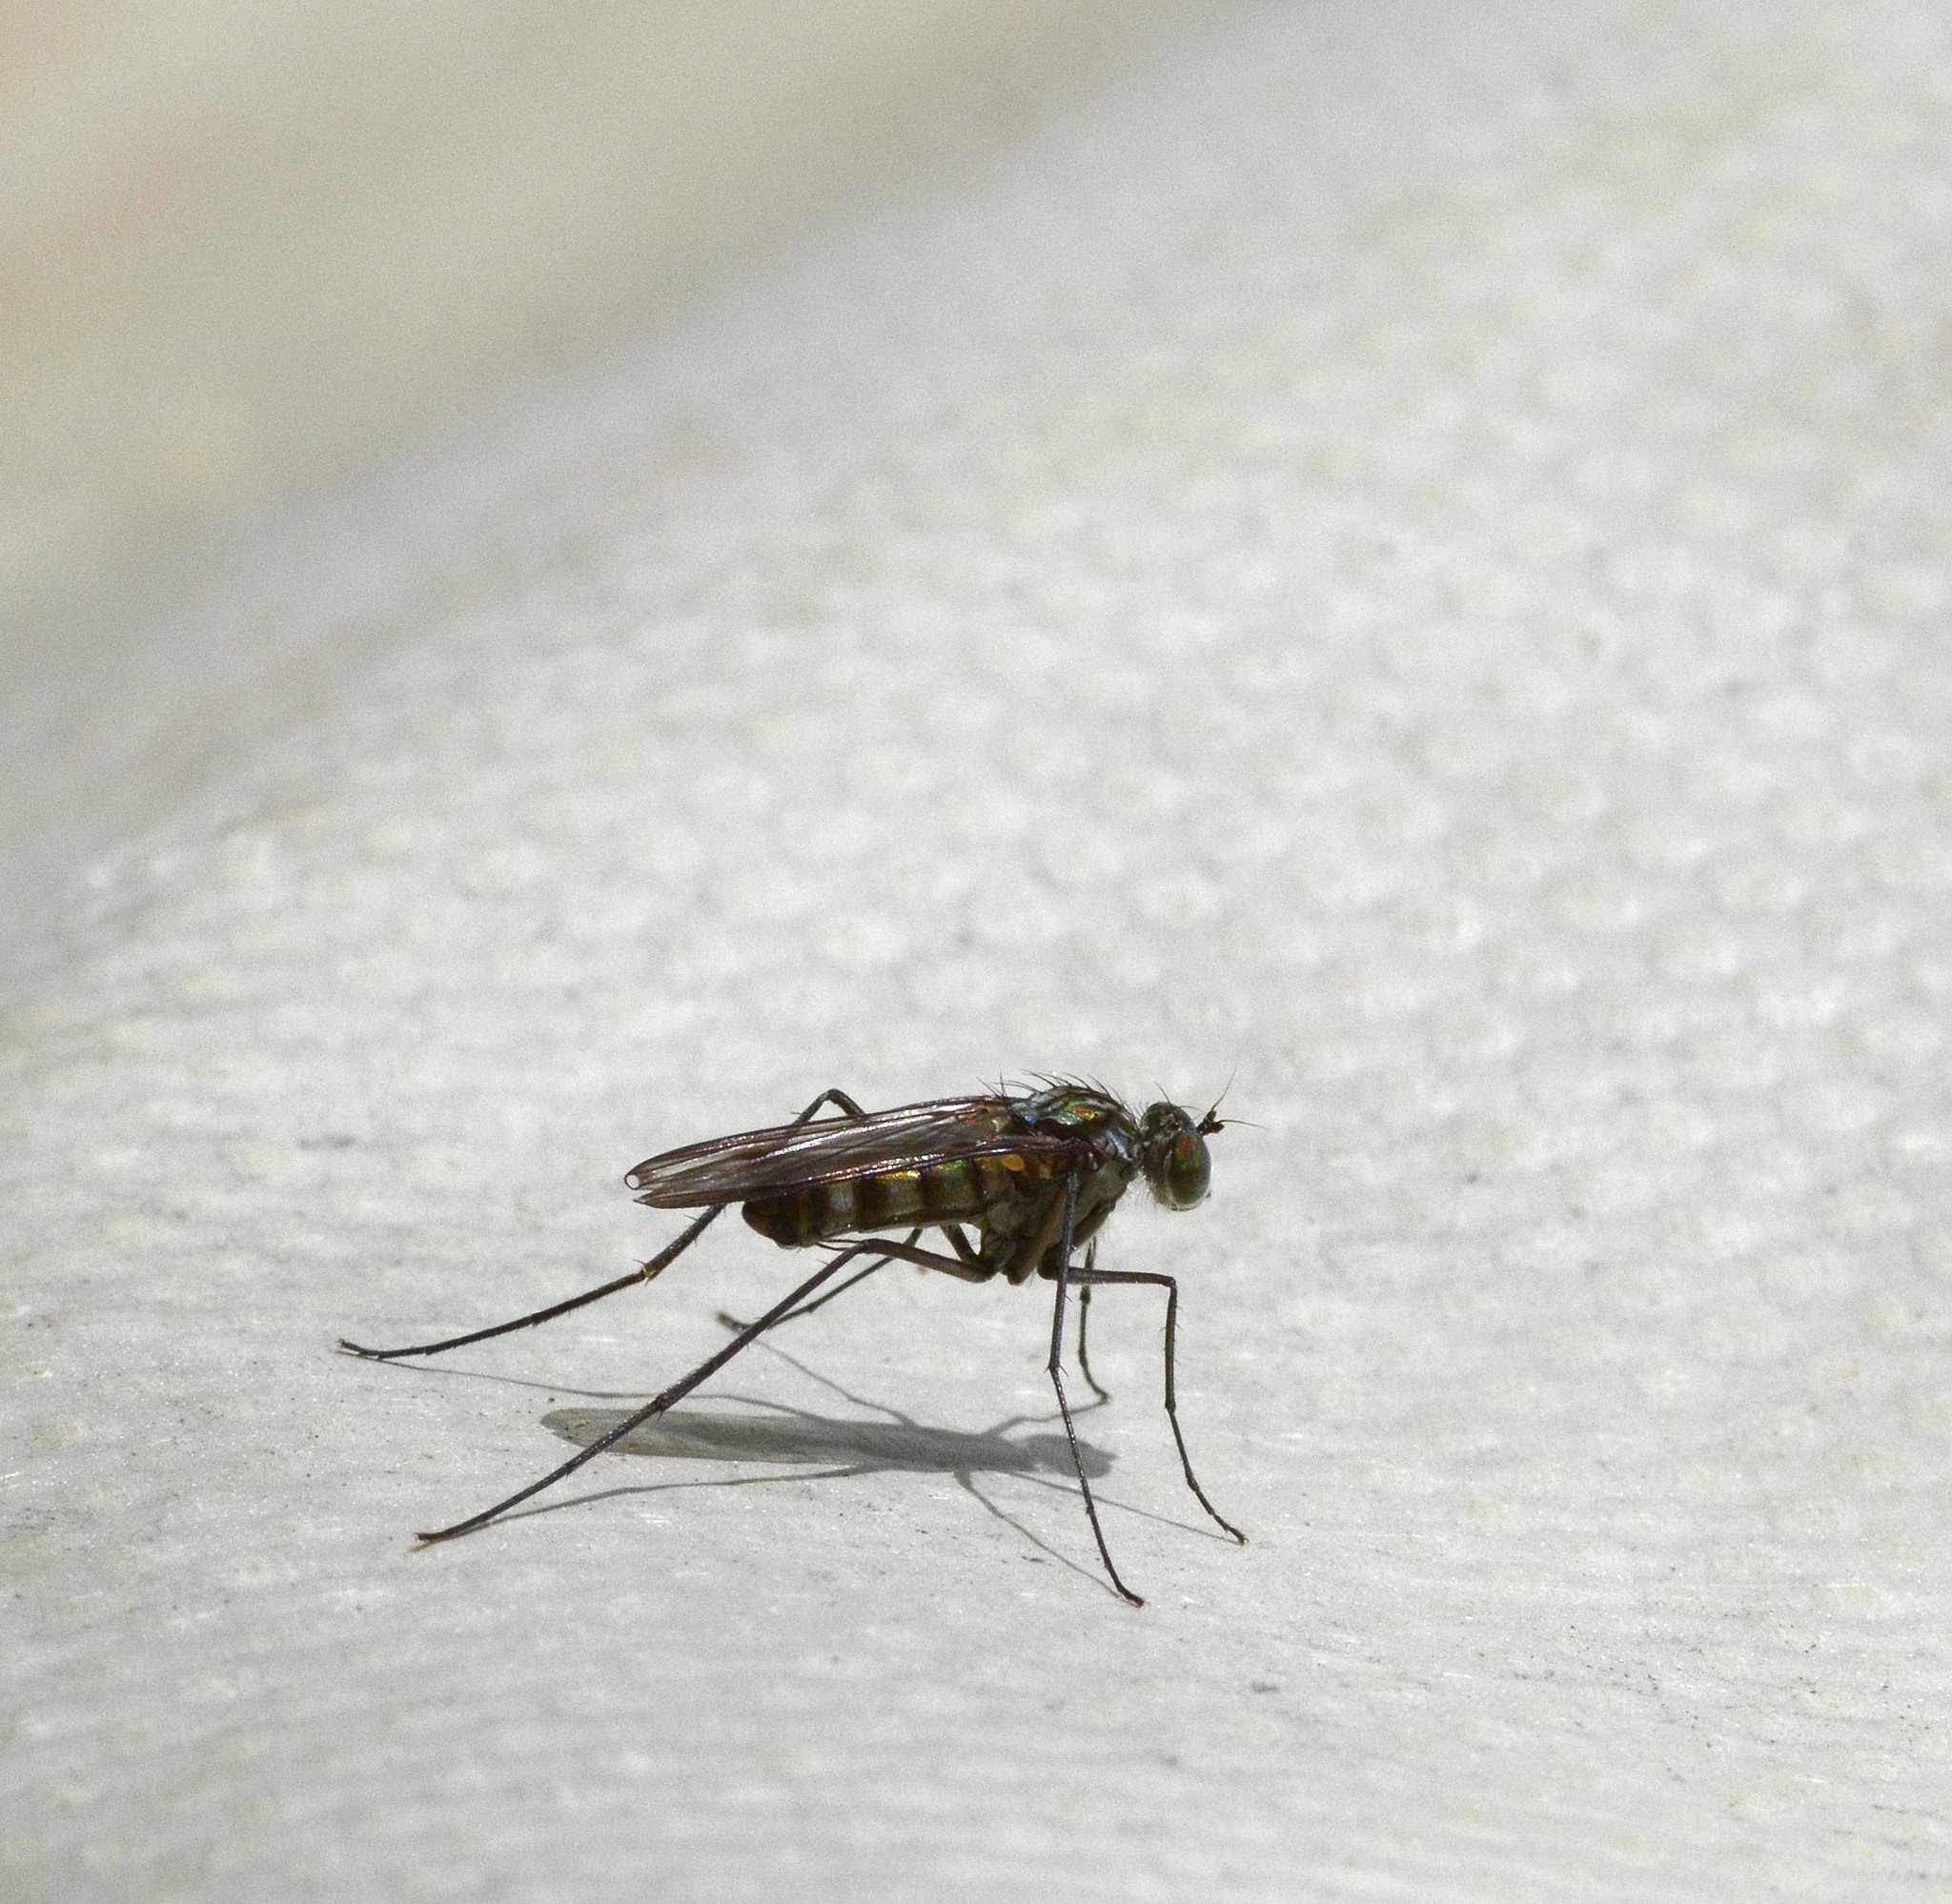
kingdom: Animalia
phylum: Arthropoda
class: Insecta
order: Diptera
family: Dolichopodidae
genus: Liancalus
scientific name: Liancalus virens
